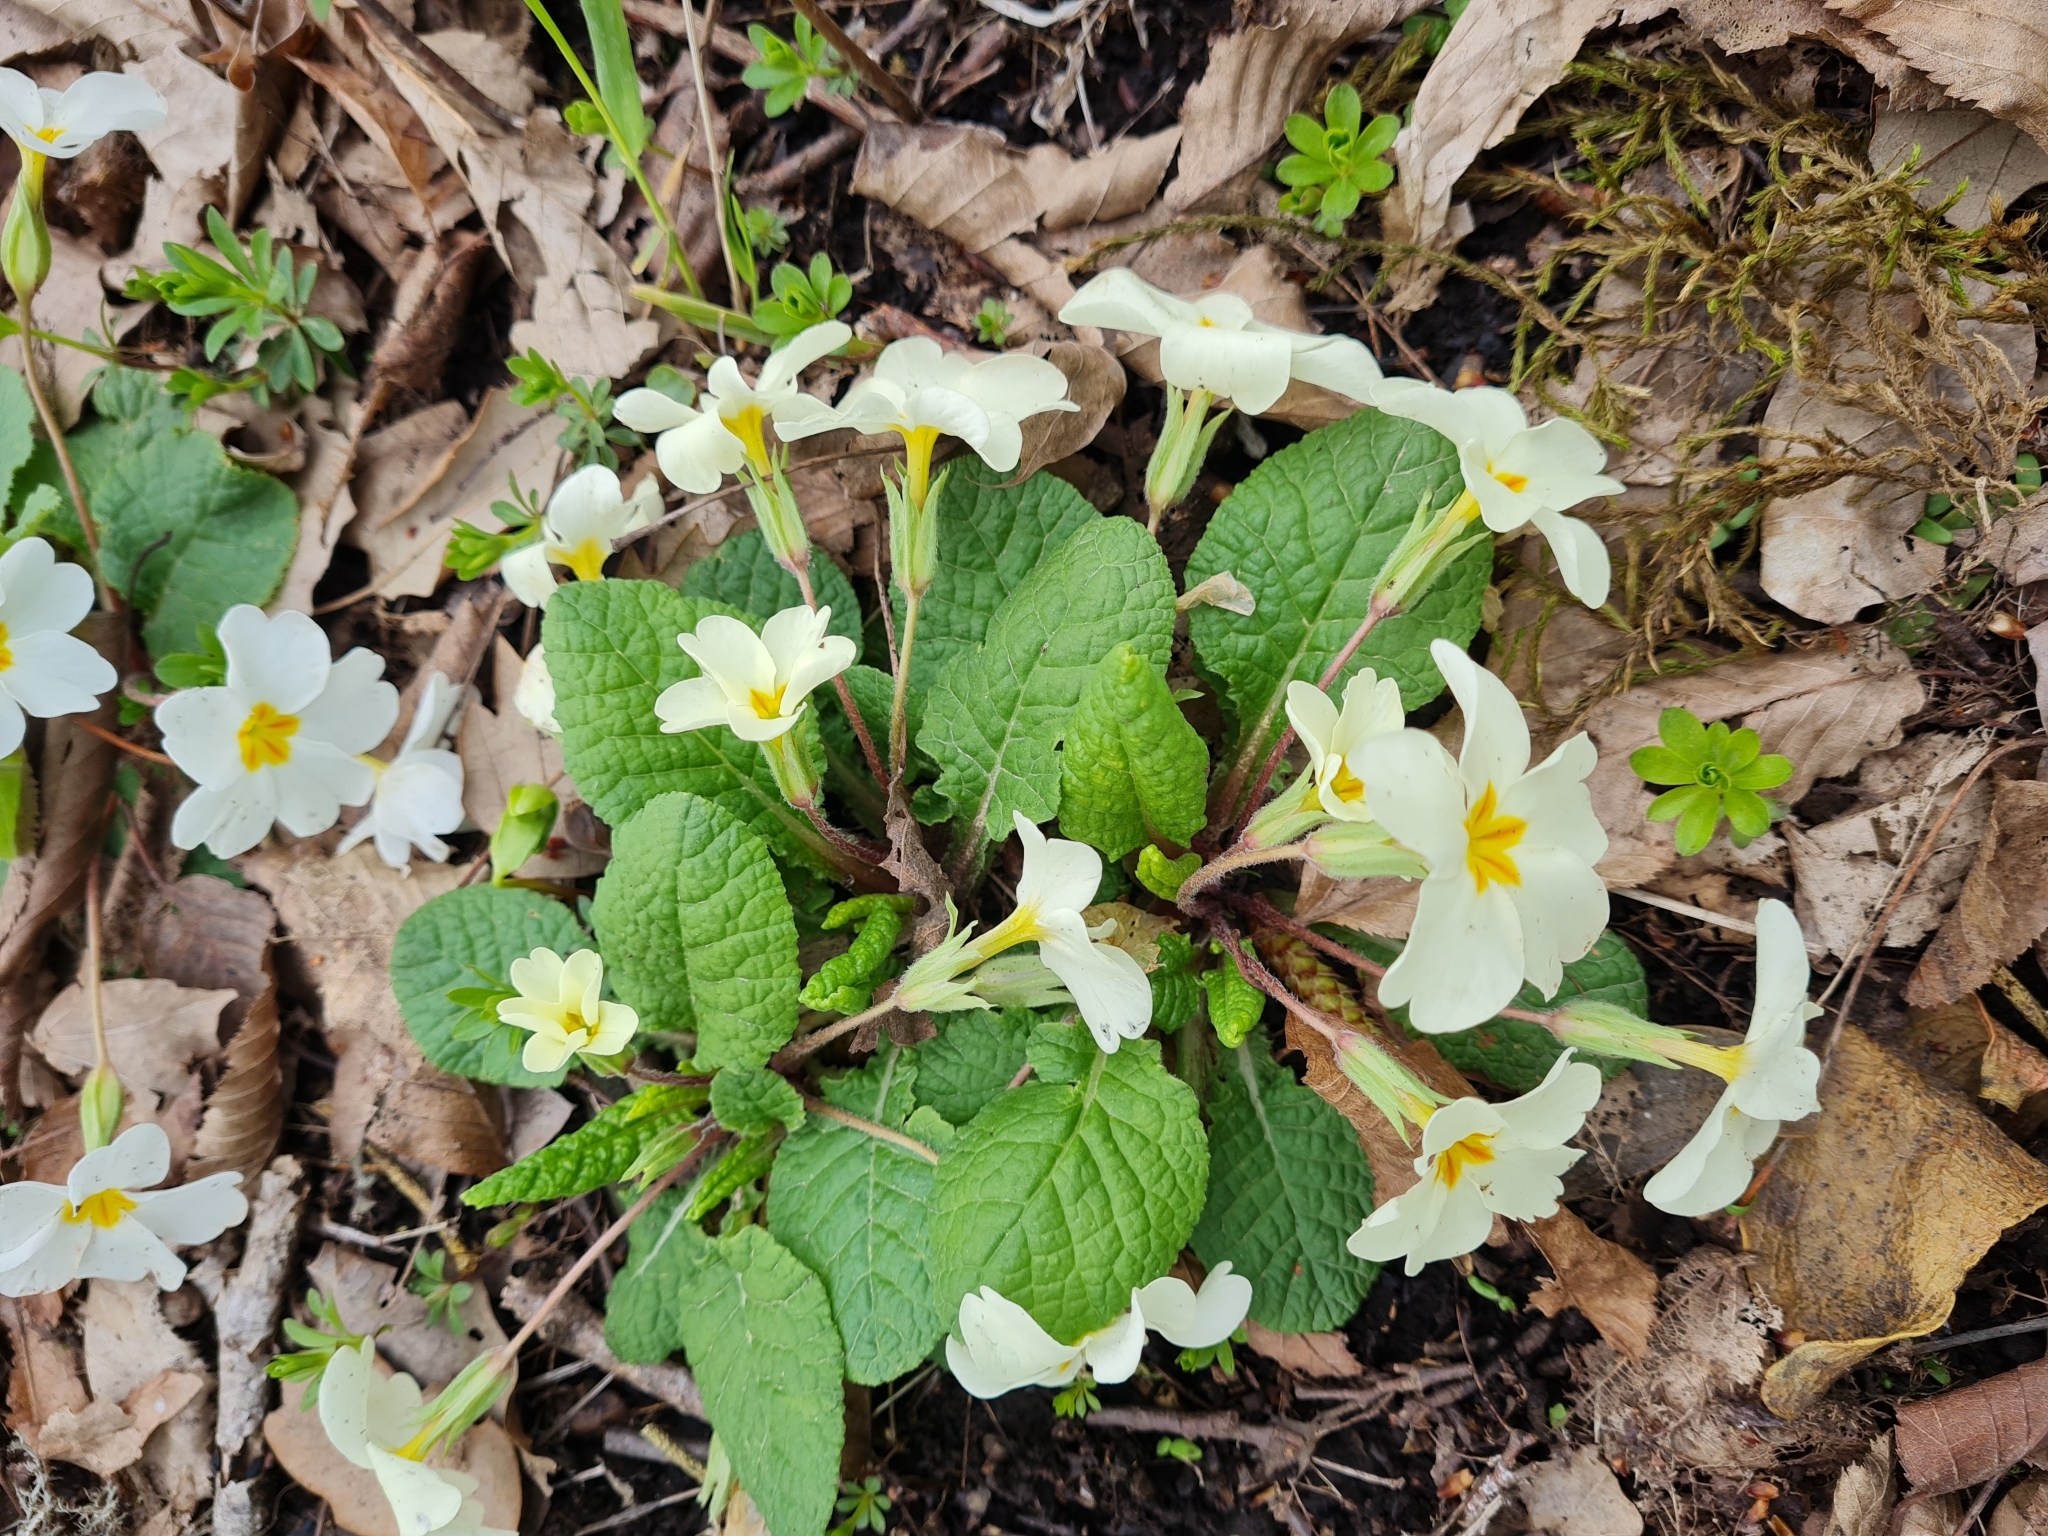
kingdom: Plantae
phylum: Tracheophyta
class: Magnoliopsida
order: Ericales
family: Primulaceae
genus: Primula
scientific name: Primula vulgaris
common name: Primrose
